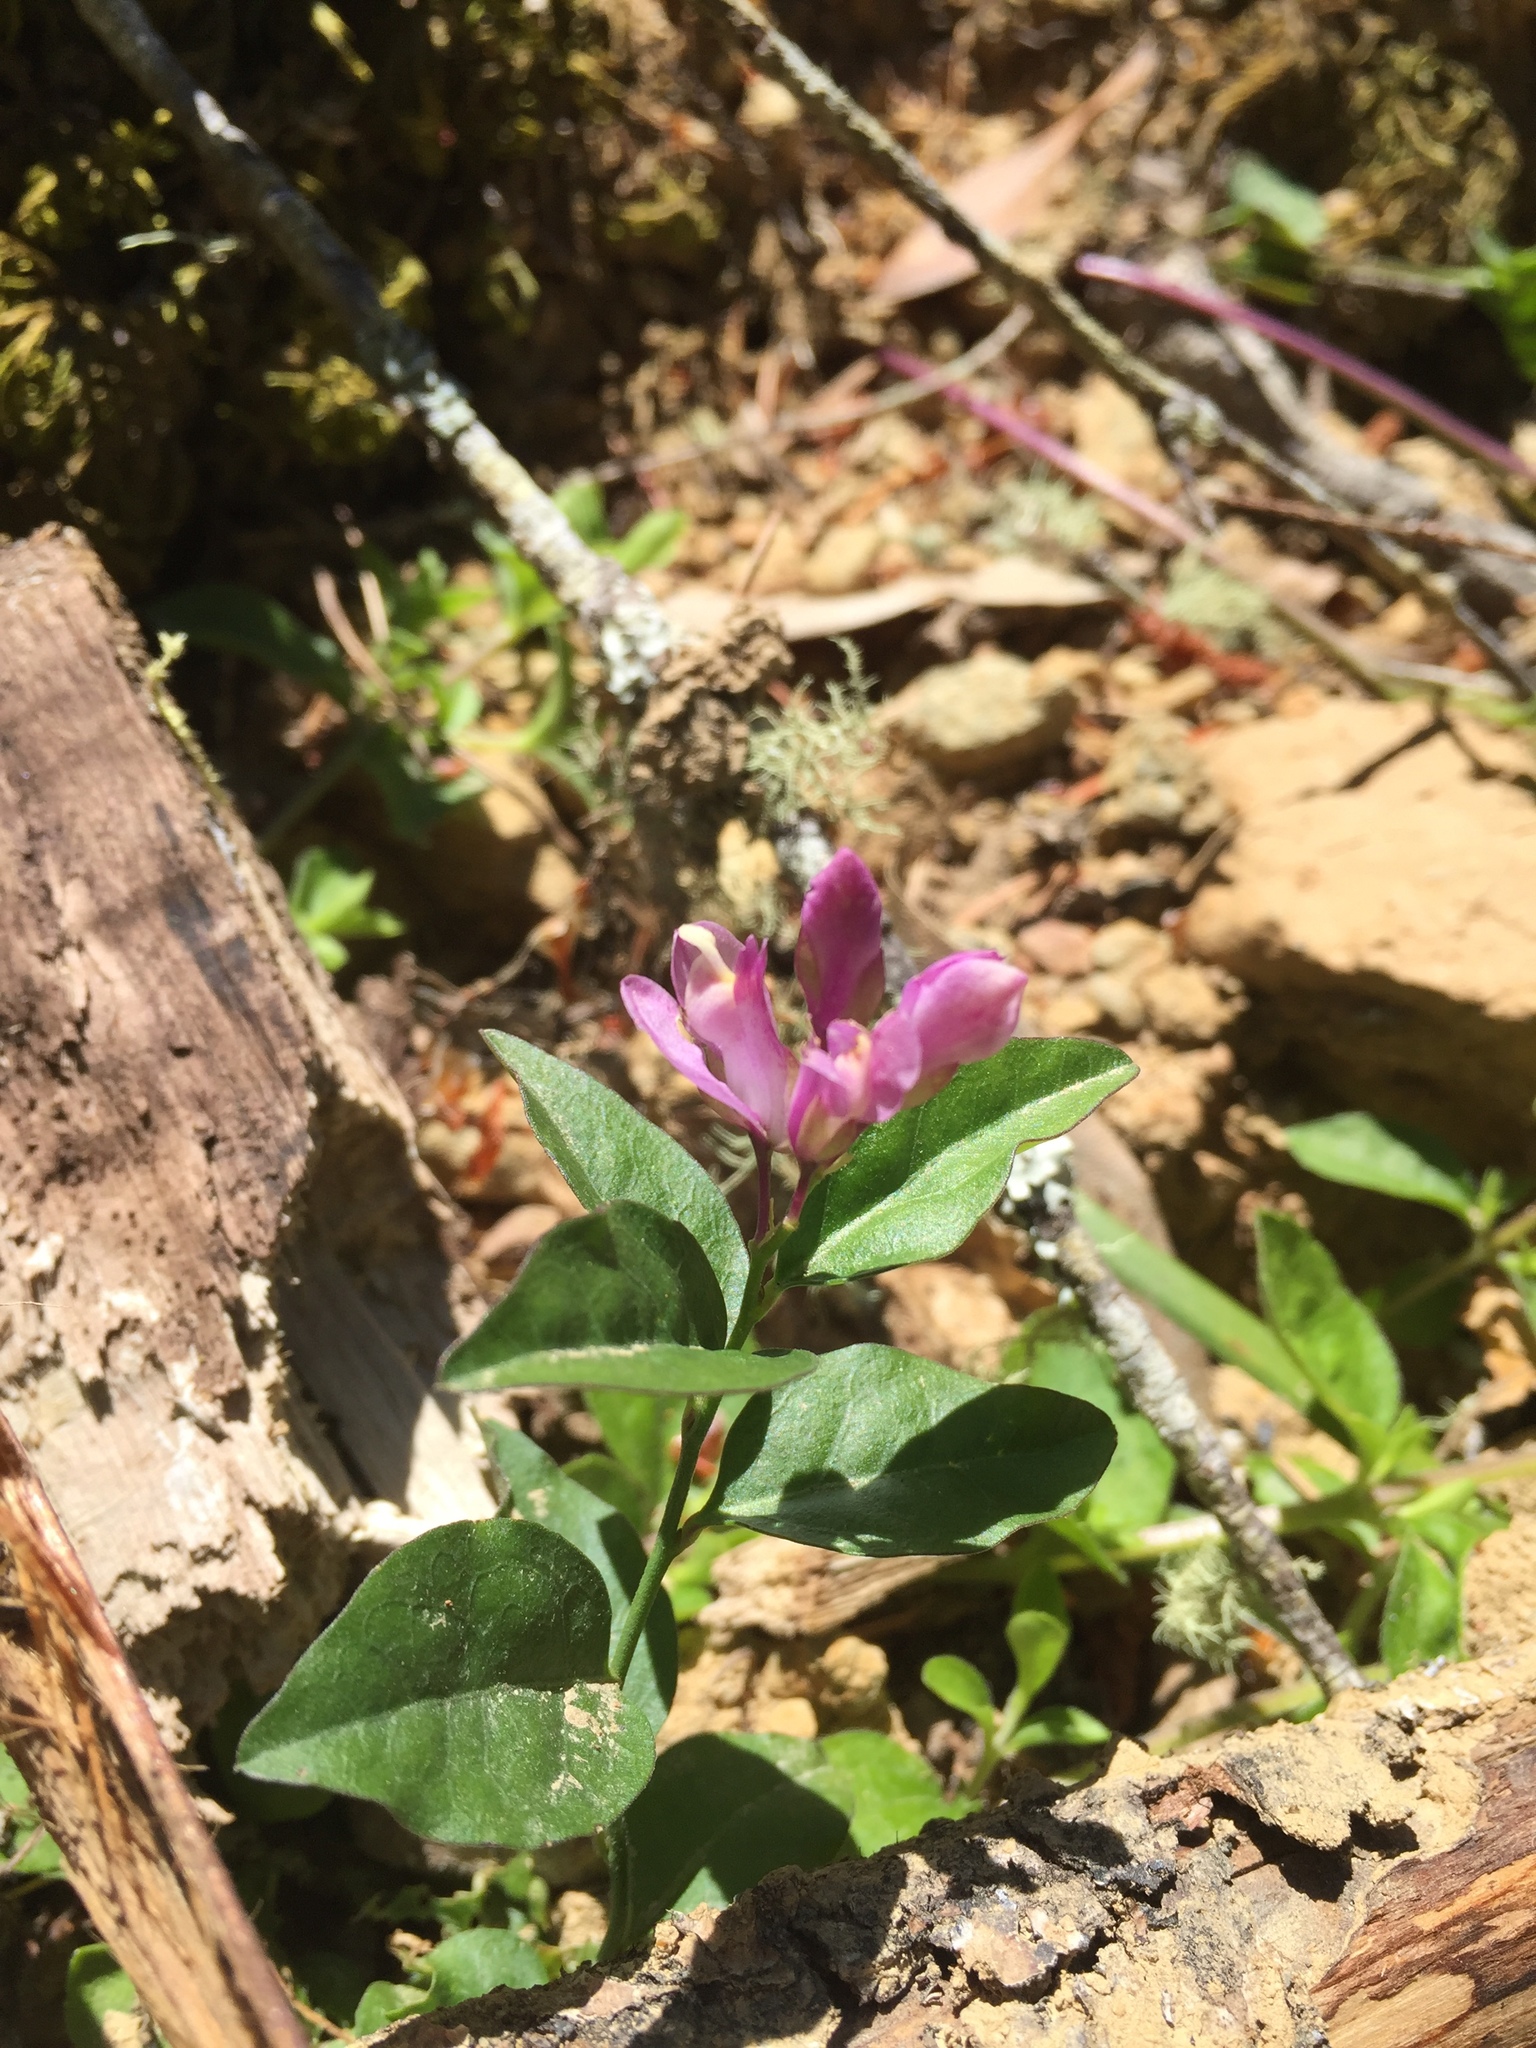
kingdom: Plantae
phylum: Tracheophyta
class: Magnoliopsida
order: Fabales
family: Polygalaceae
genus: Rhinotropis
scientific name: Rhinotropis californica
